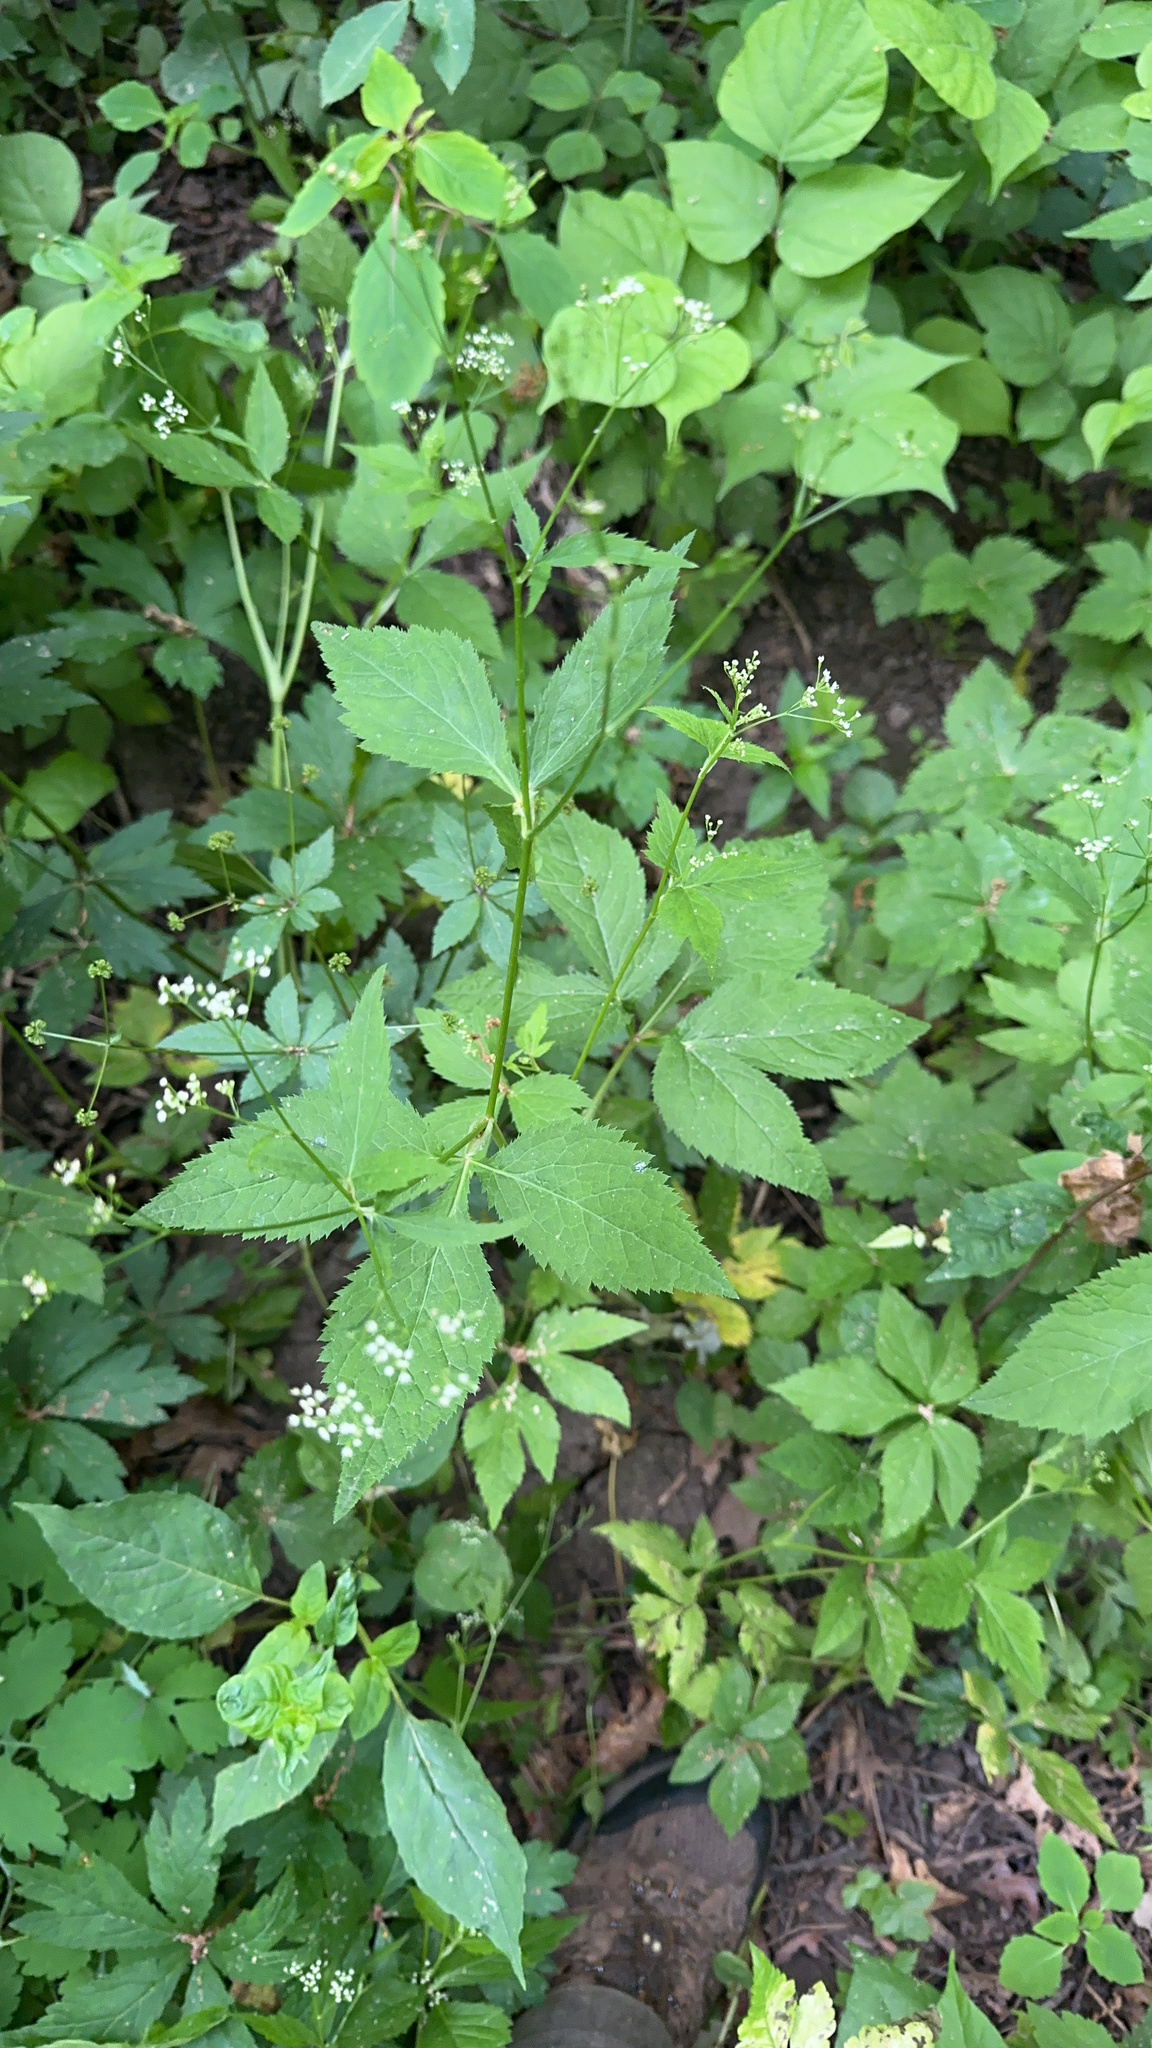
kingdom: Plantae
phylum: Tracheophyta
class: Magnoliopsida
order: Apiales
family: Apiaceae
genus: Cryptotaenia
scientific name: Cryptotaenia canadensis
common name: Honewort
